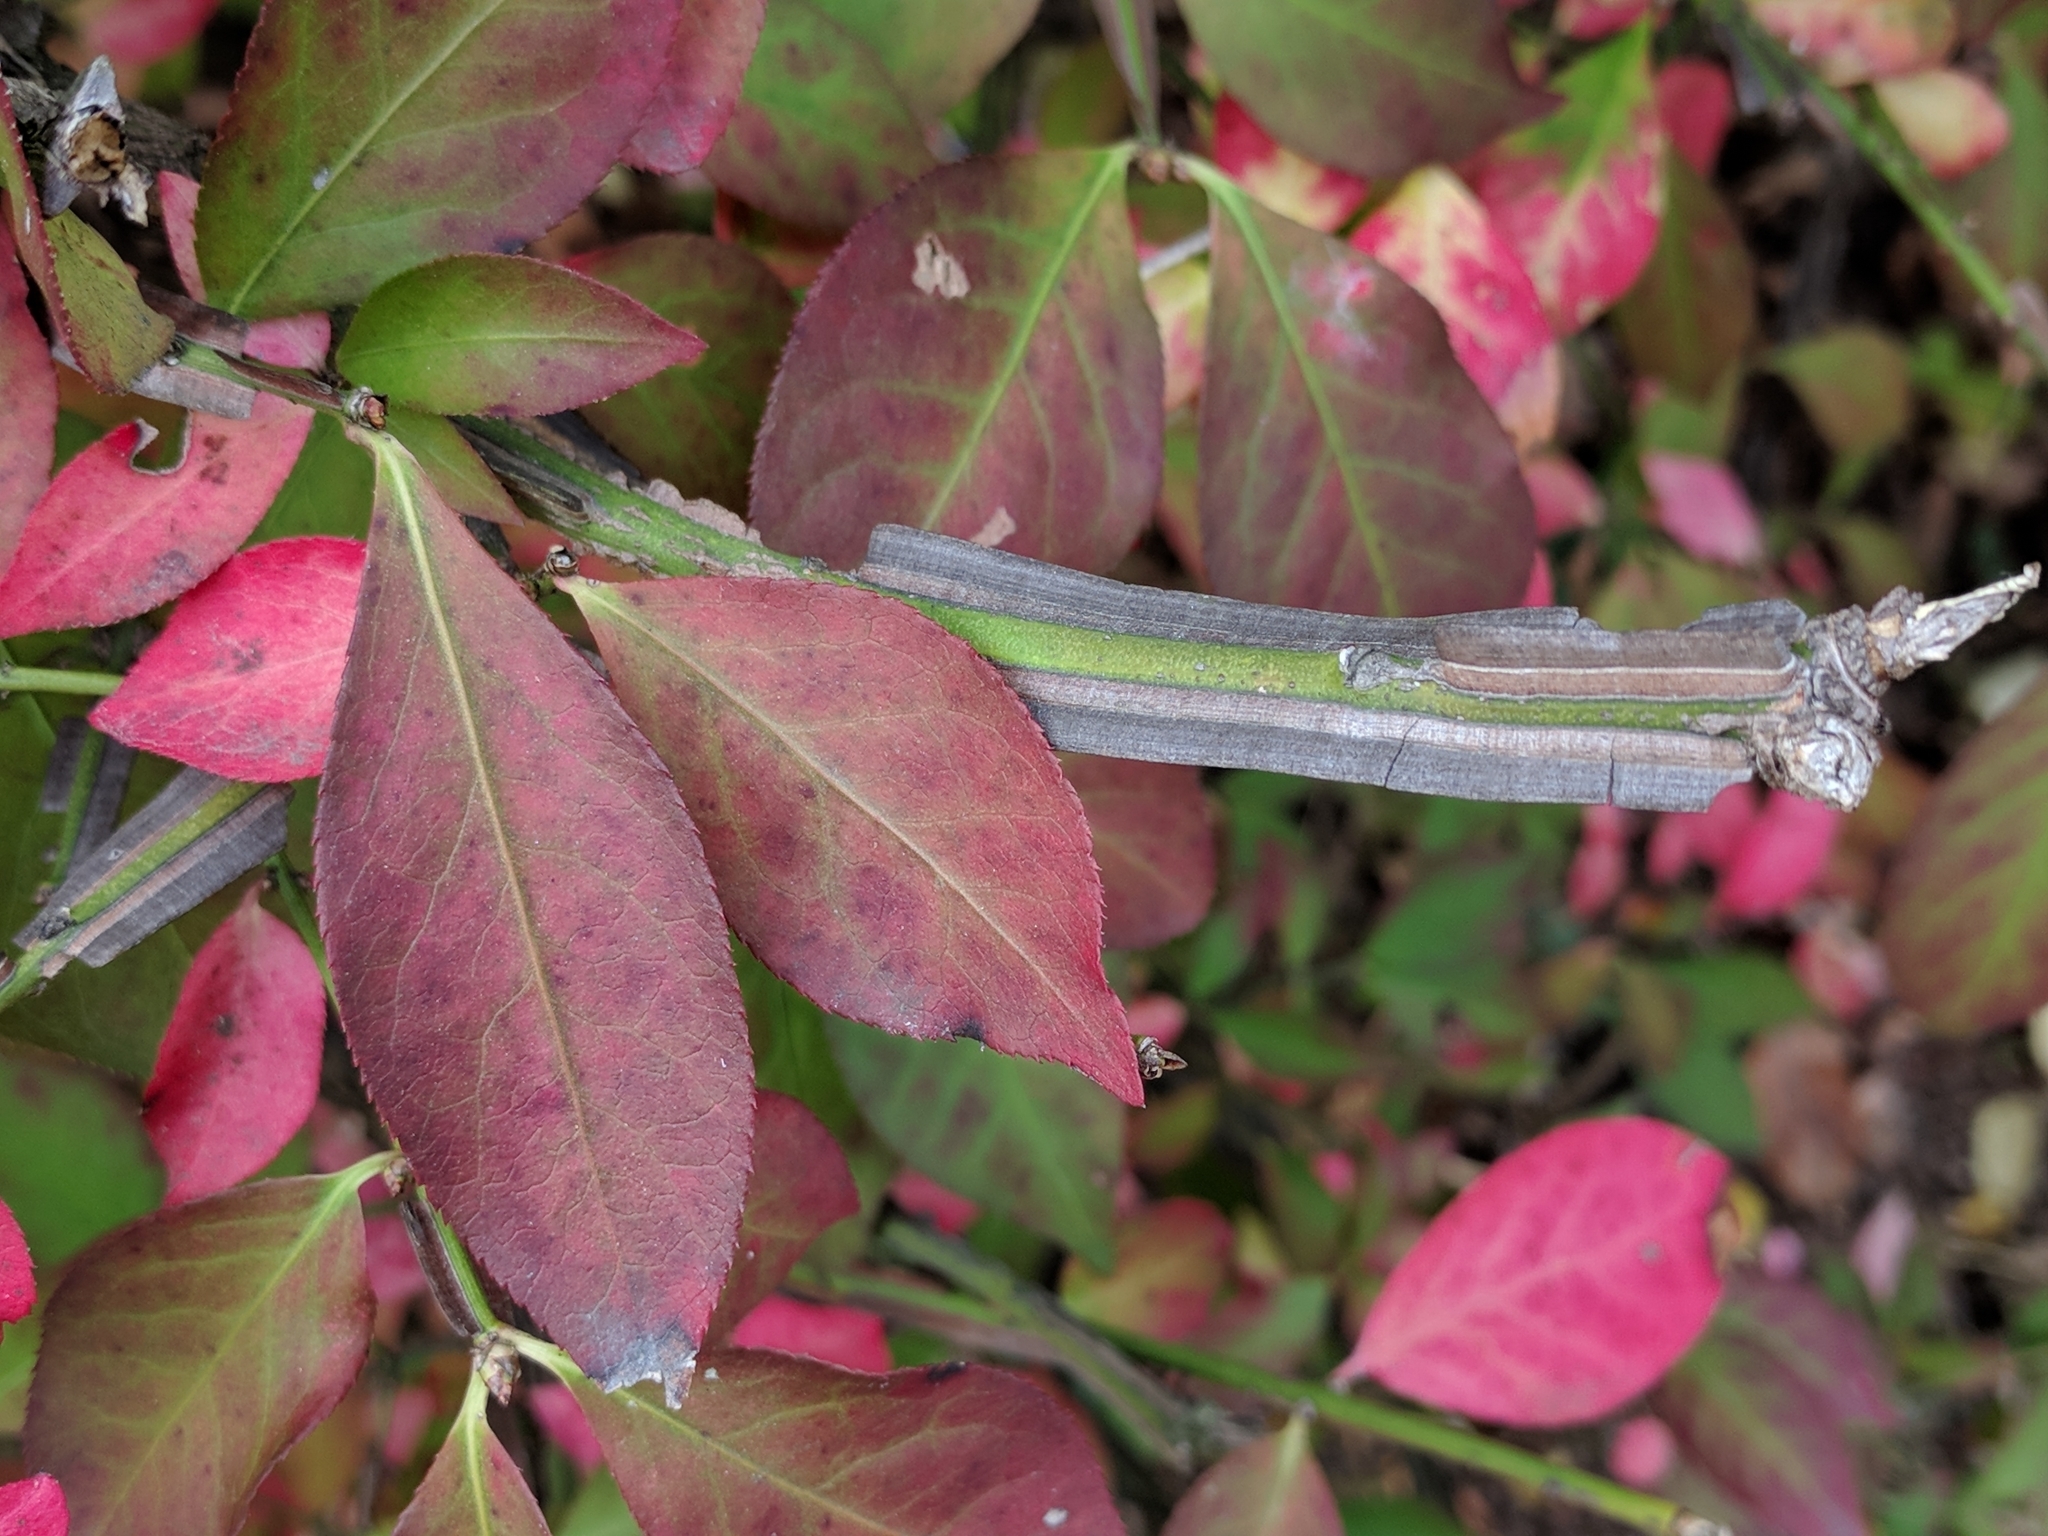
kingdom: Plantae
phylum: Tracheophyta
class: Magnoliopsida
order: Celastrales
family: Celastraceae
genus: Euonymus
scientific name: Euonymus alatus
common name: Winged euonymus
